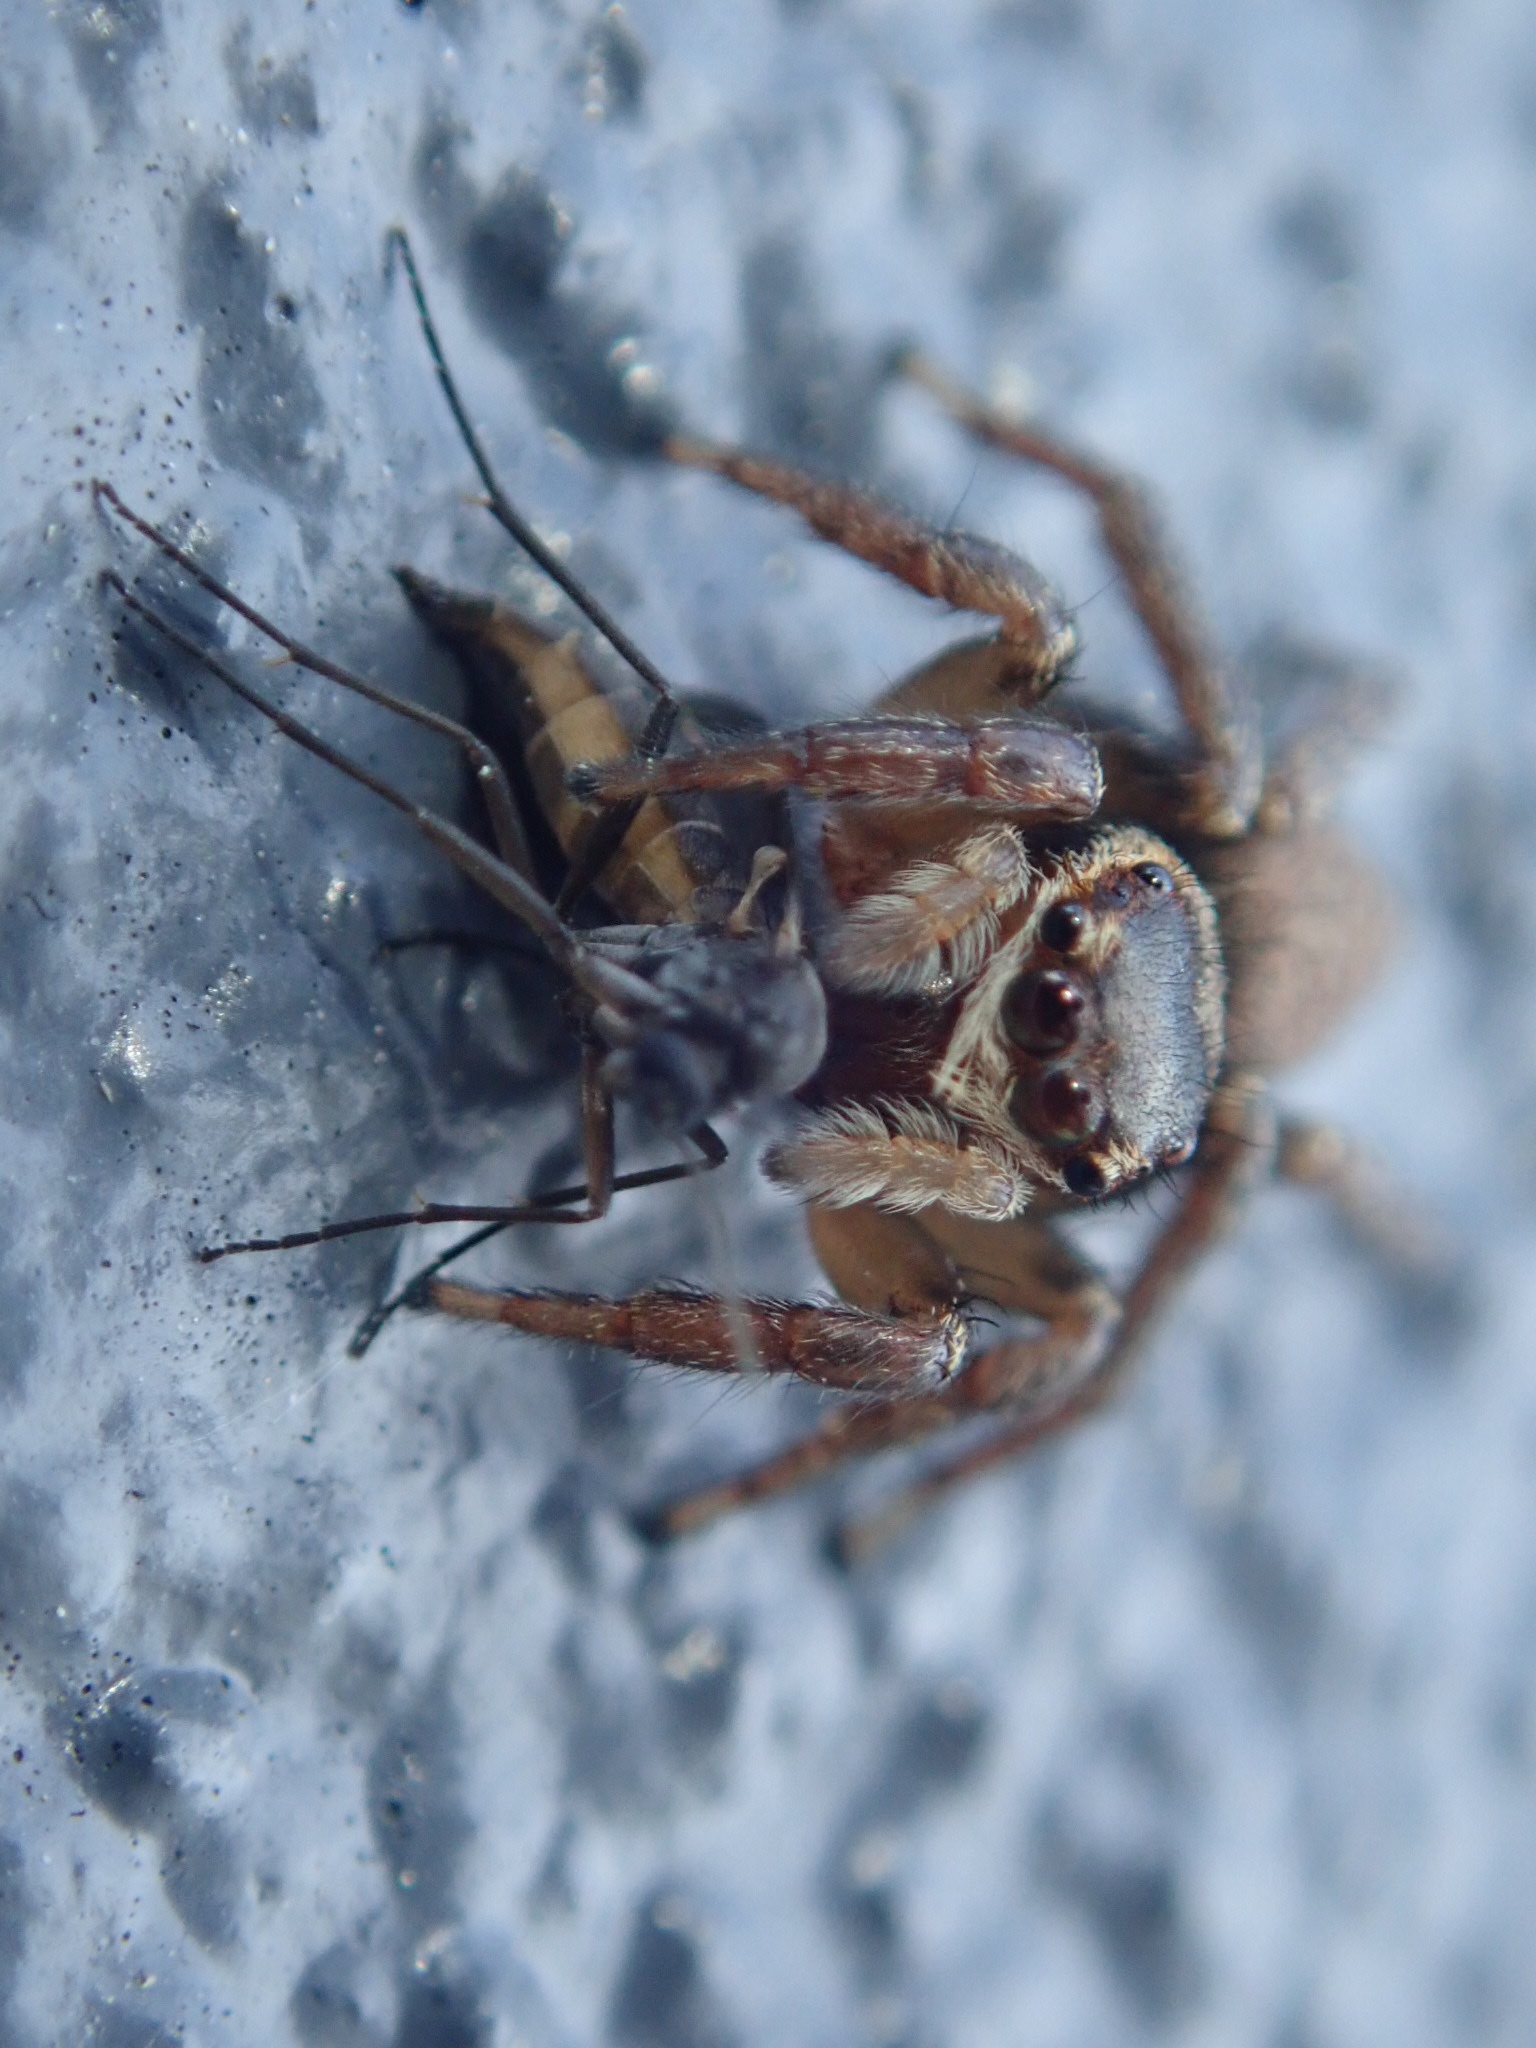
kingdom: Animalia
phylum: Arthropoda
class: Arachnida
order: Araneae
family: Salticidae
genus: Maratus
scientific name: Maratus griseus
